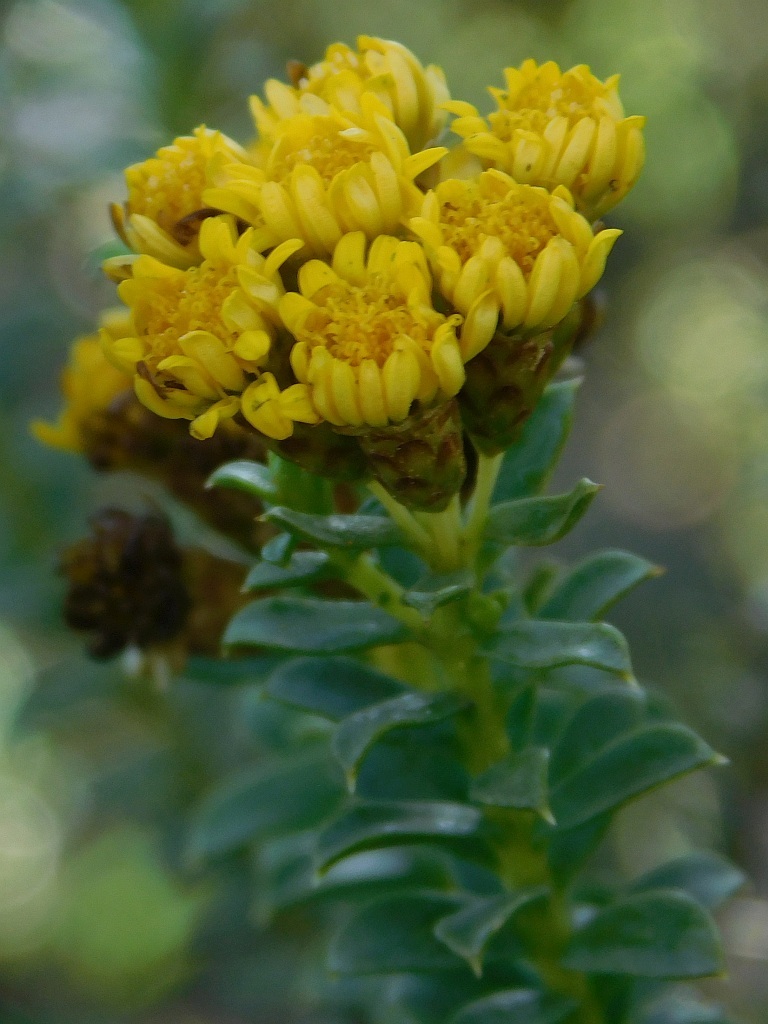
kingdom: Plantae
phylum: Tracheophyta
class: Magnoliopsida
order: Asterales
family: Asteraceae
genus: Oedera
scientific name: Oedera squarrosa
